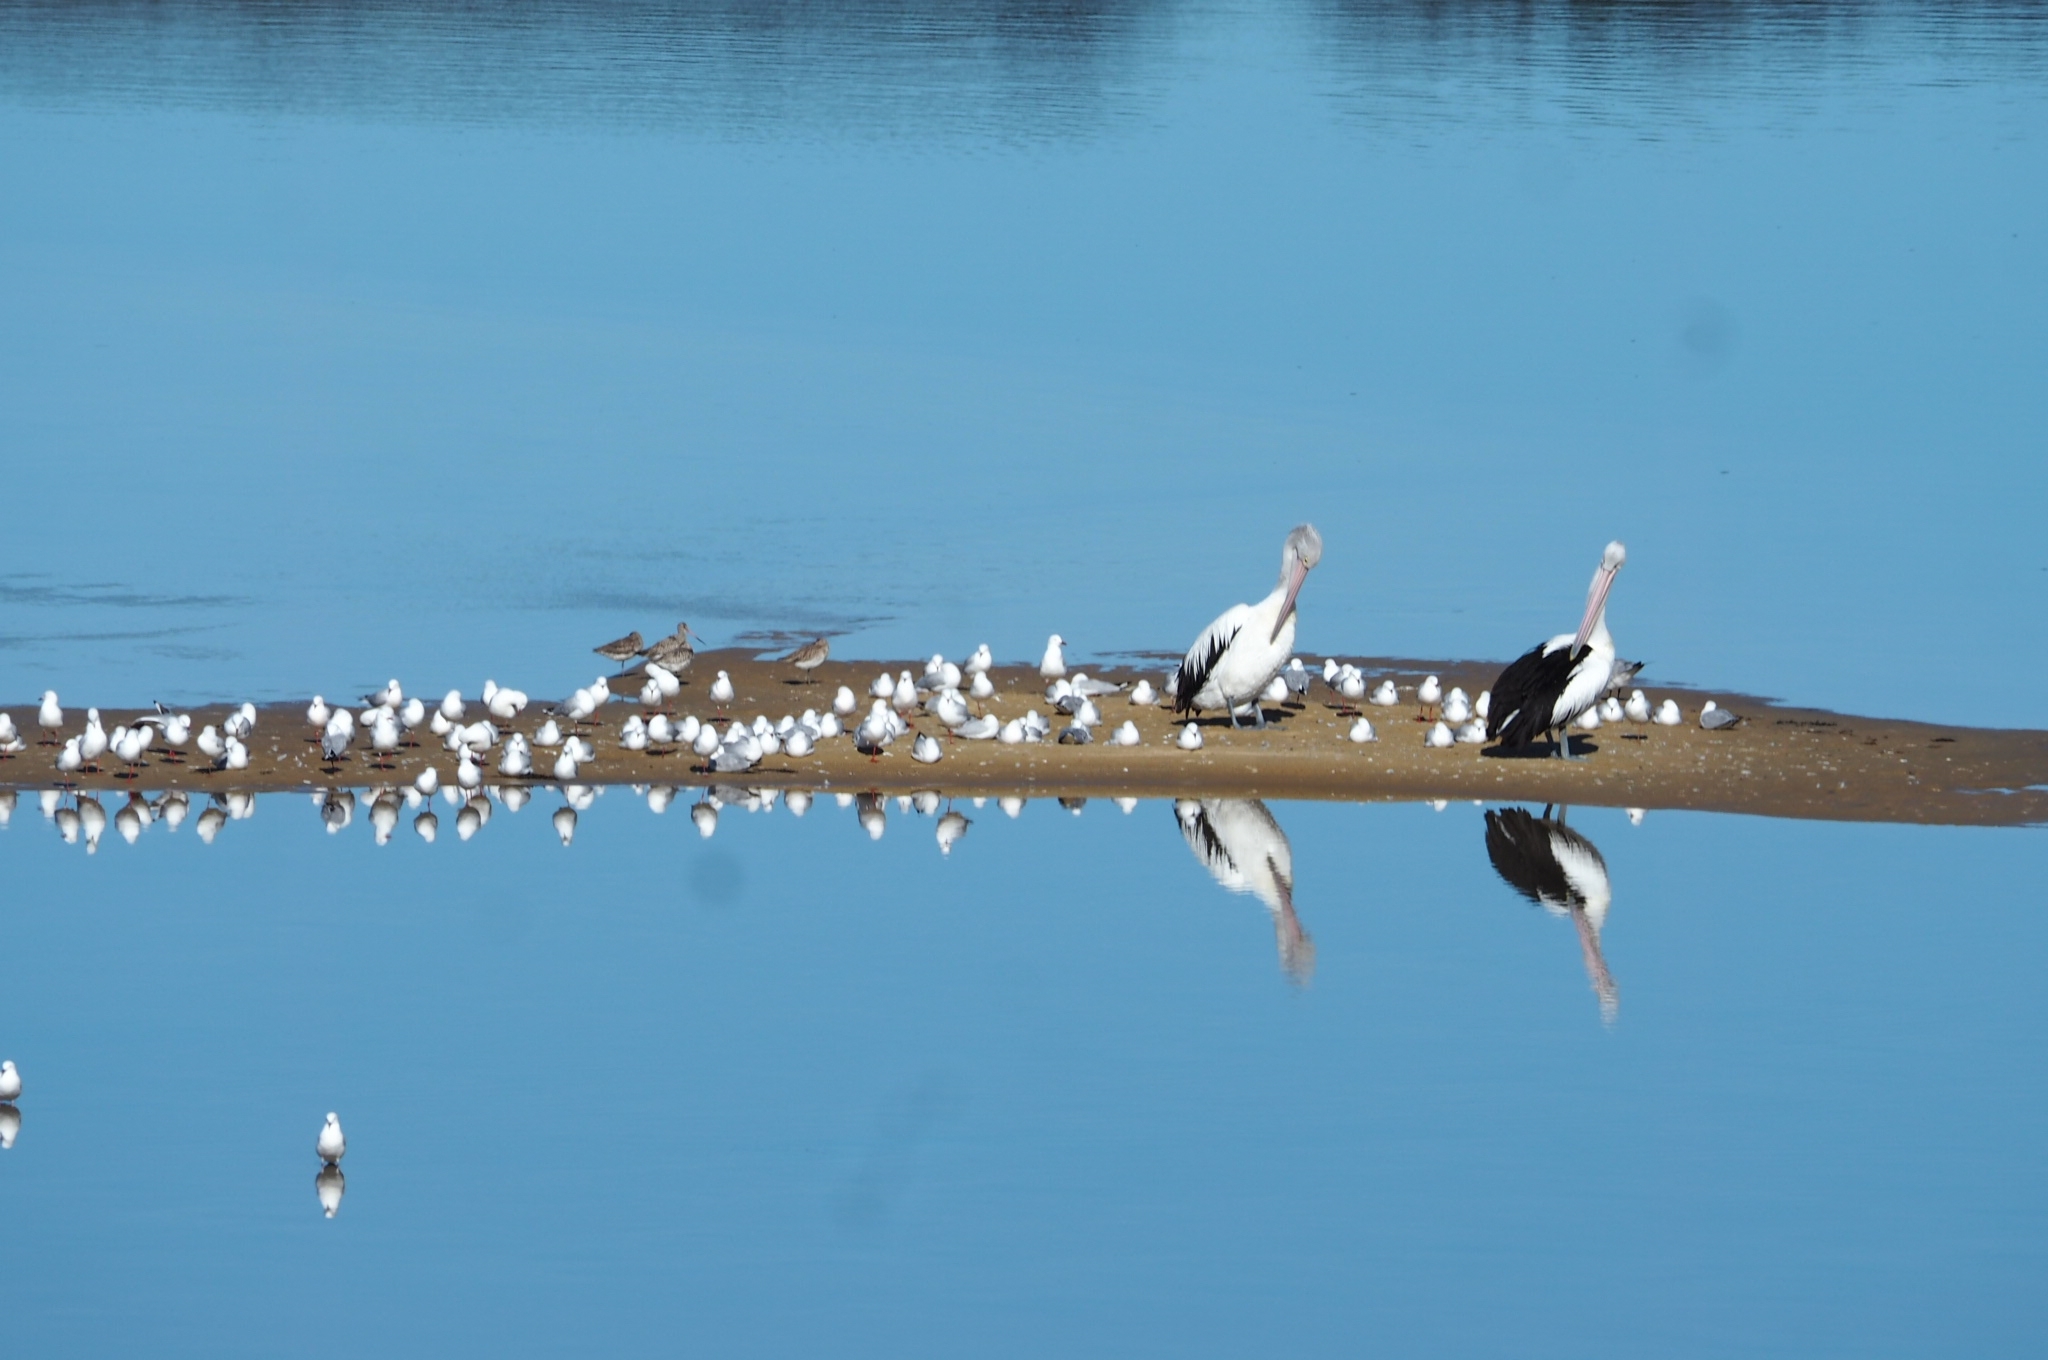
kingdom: Animalia
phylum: Chordata
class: Aves
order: Charadriiformes
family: Scolopacidae
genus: Limosa
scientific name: Limosa lapponica
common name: Bar-tailed godwit
